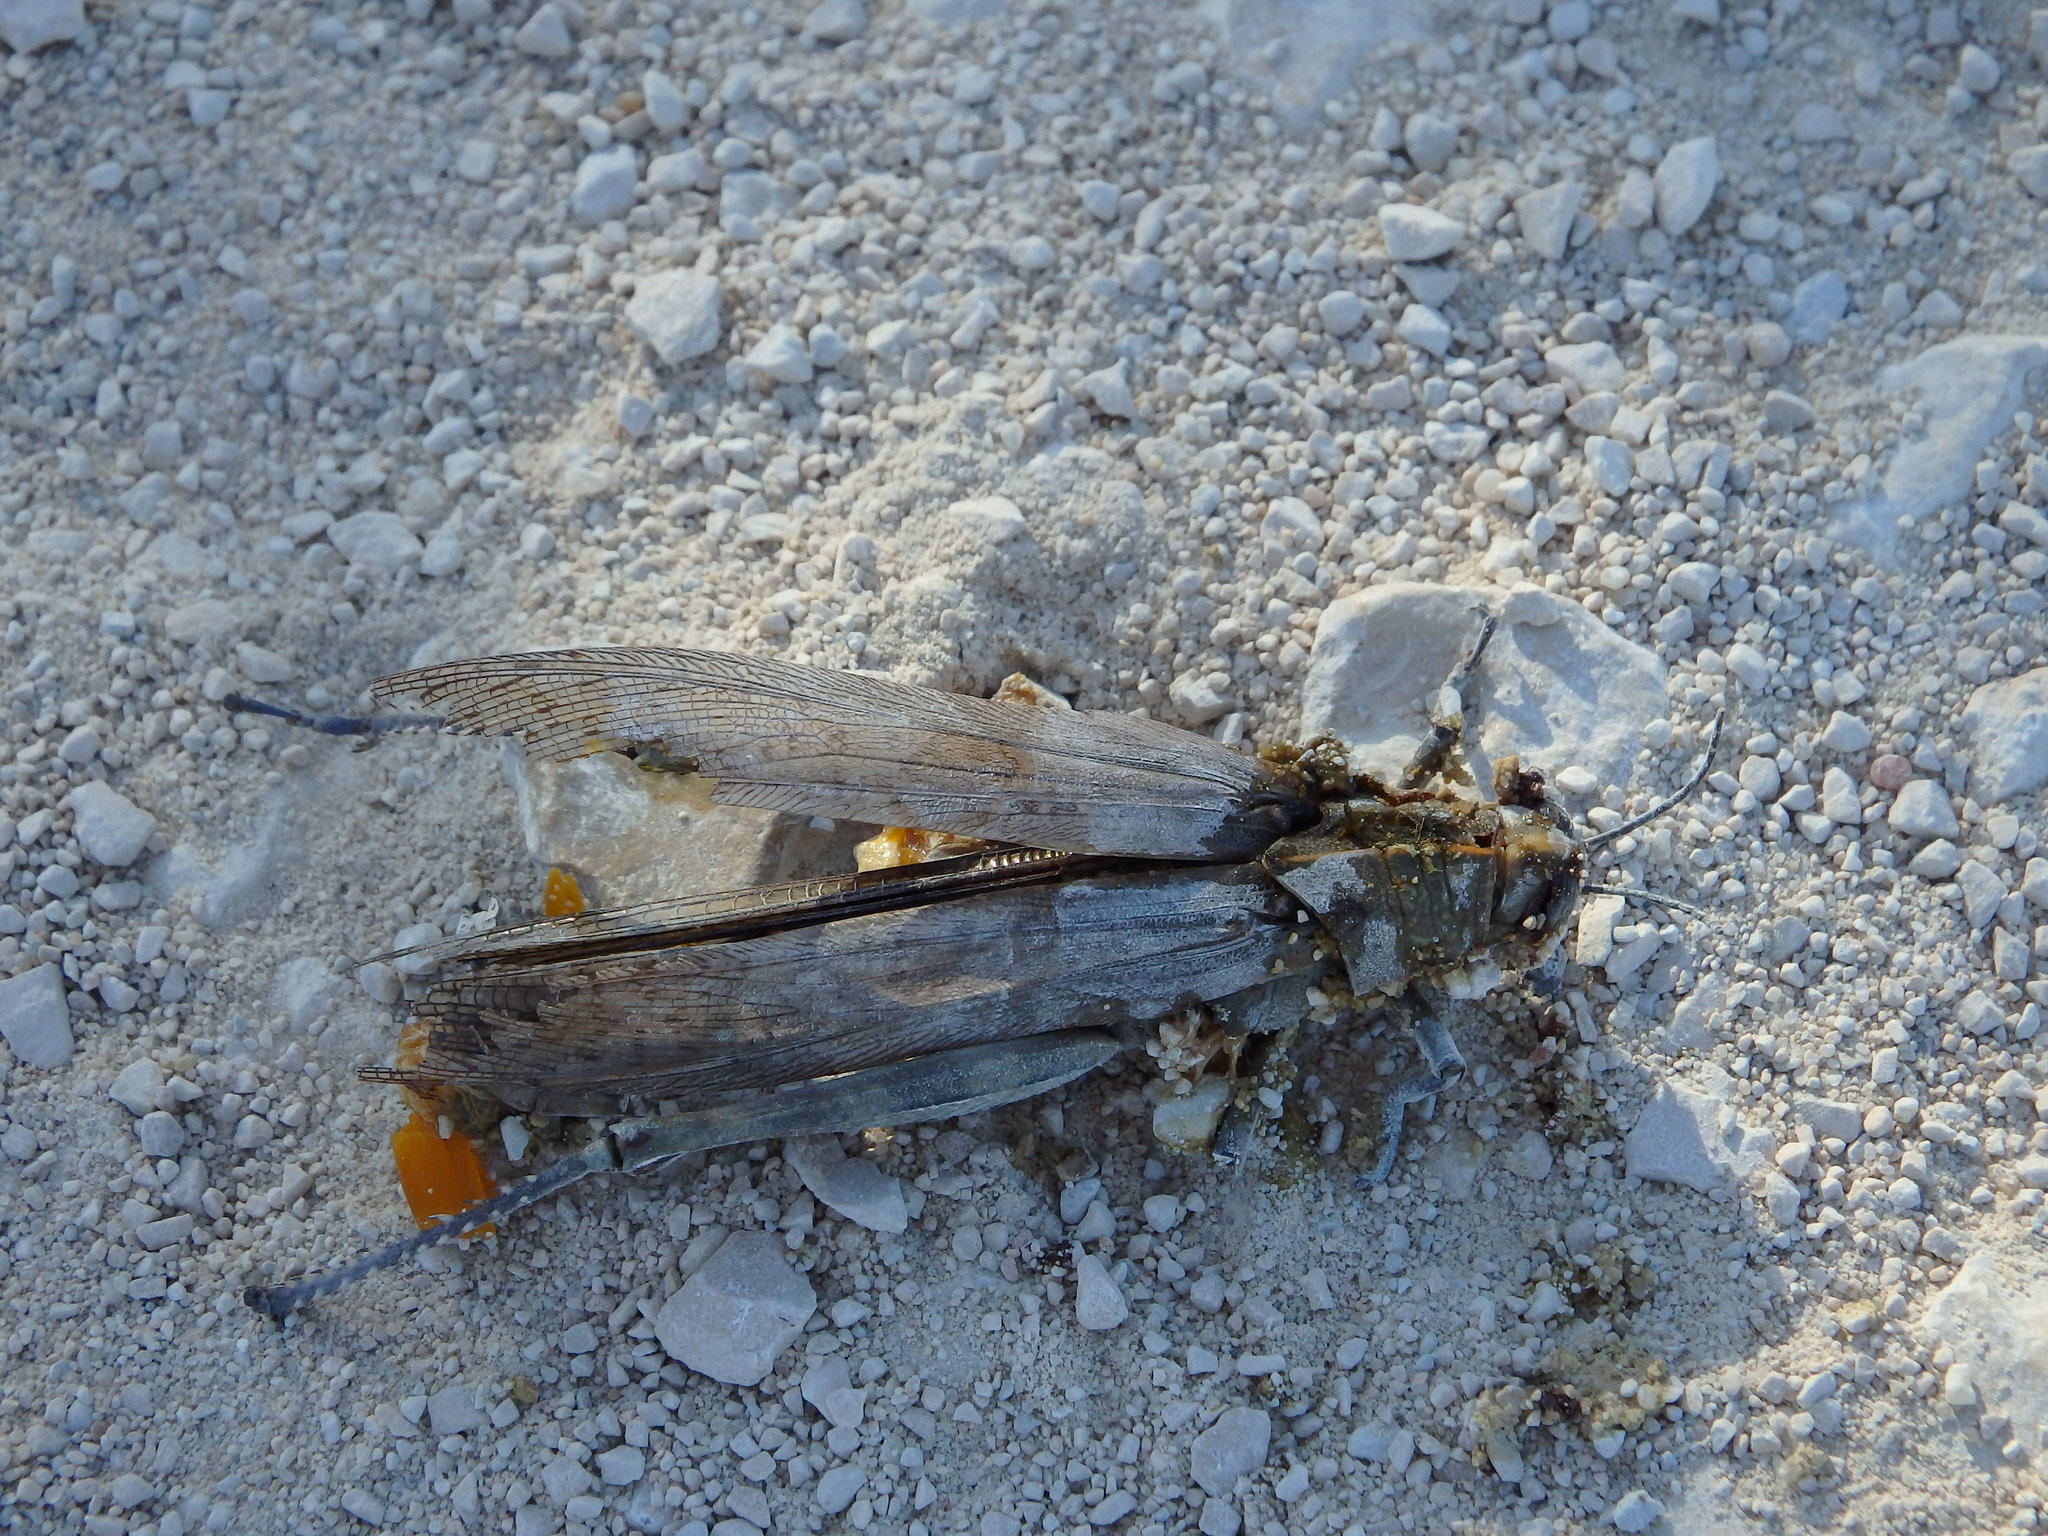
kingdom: Animalia
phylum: Arthropoda
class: Insecta
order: Orthoptera
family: Acrididae
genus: Anacridium
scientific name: Anacridium aegyptium
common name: Egyptian grasshopper
